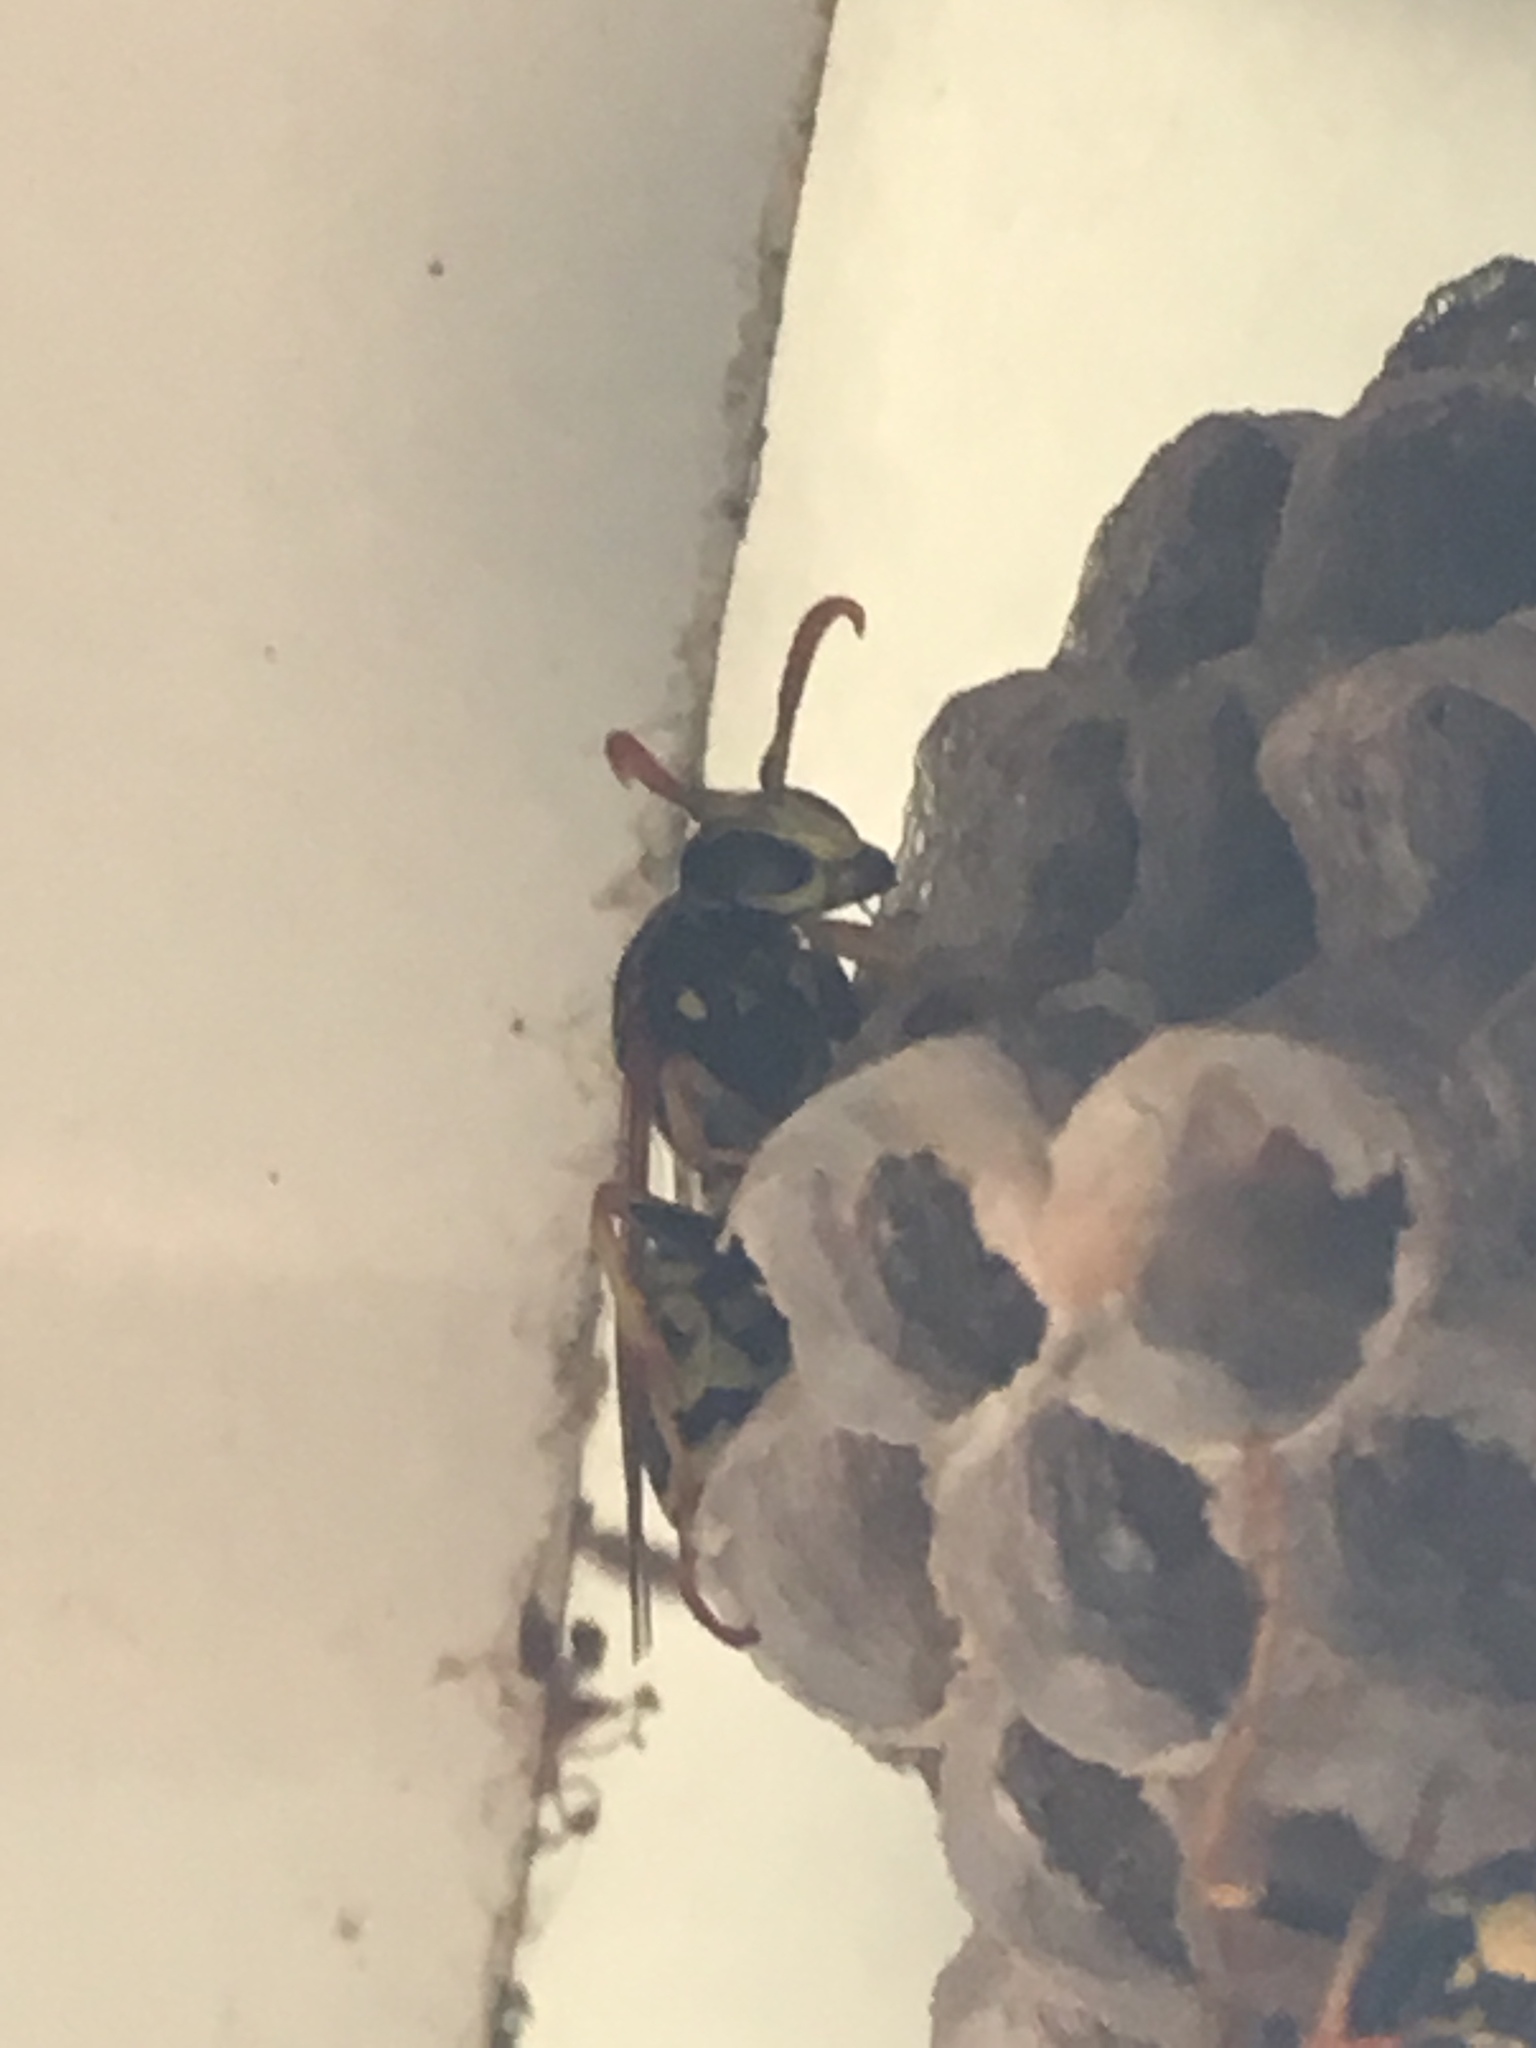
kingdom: Animalia
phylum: Arthropoda
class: Insecta
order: Hymenoptera
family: Eumenidae
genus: Polistes
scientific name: Polistes dominula
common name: Paper wasp
